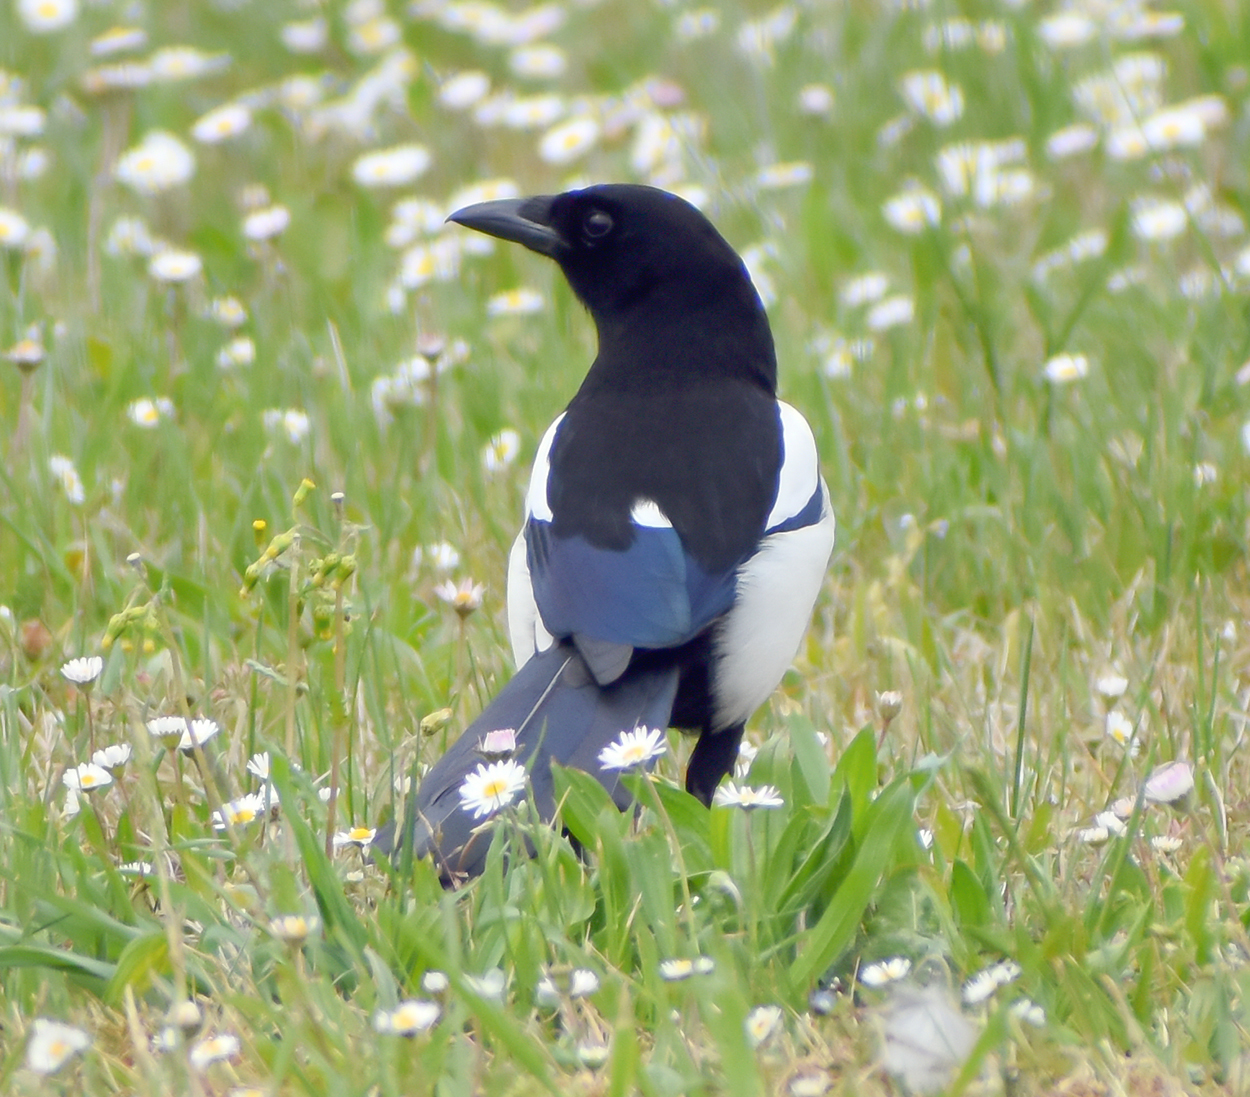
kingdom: Animalia
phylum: Chordata
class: Aves
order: Passeriformes
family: Corvidae
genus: Pica
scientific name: Pica pica
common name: Eurasian magpie
